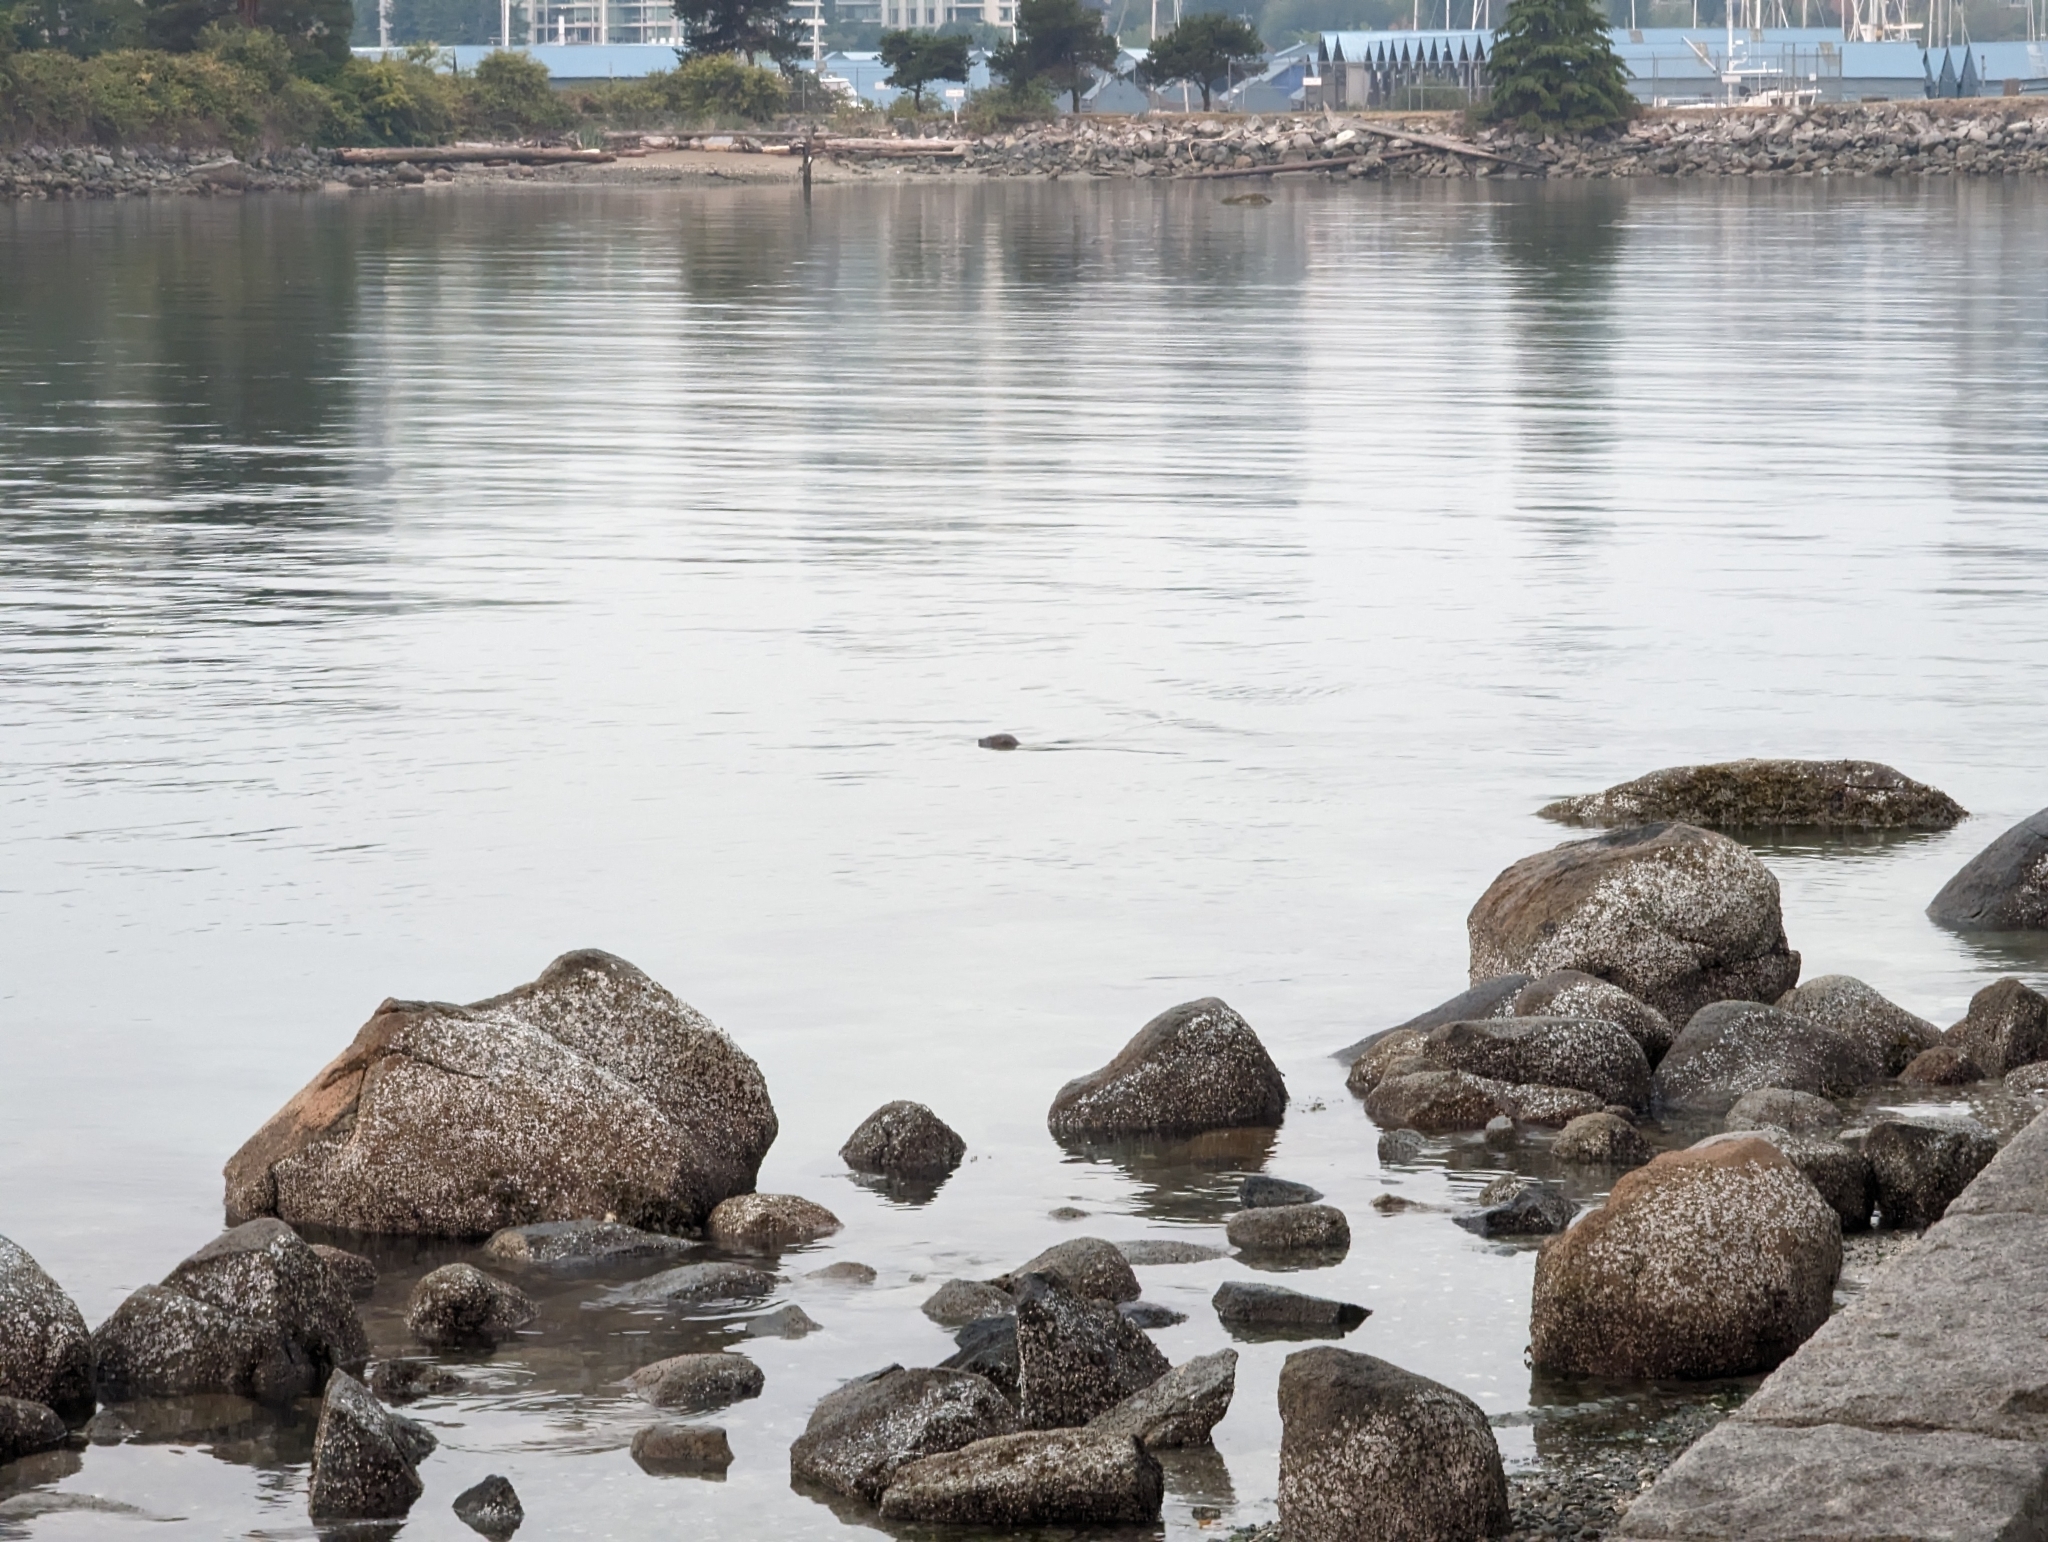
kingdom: Animalia
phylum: Chordata
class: Mammalia
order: Carnivora
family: Phocidae
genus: Phoca
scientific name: Phoca vitulina
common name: Harbor seal
